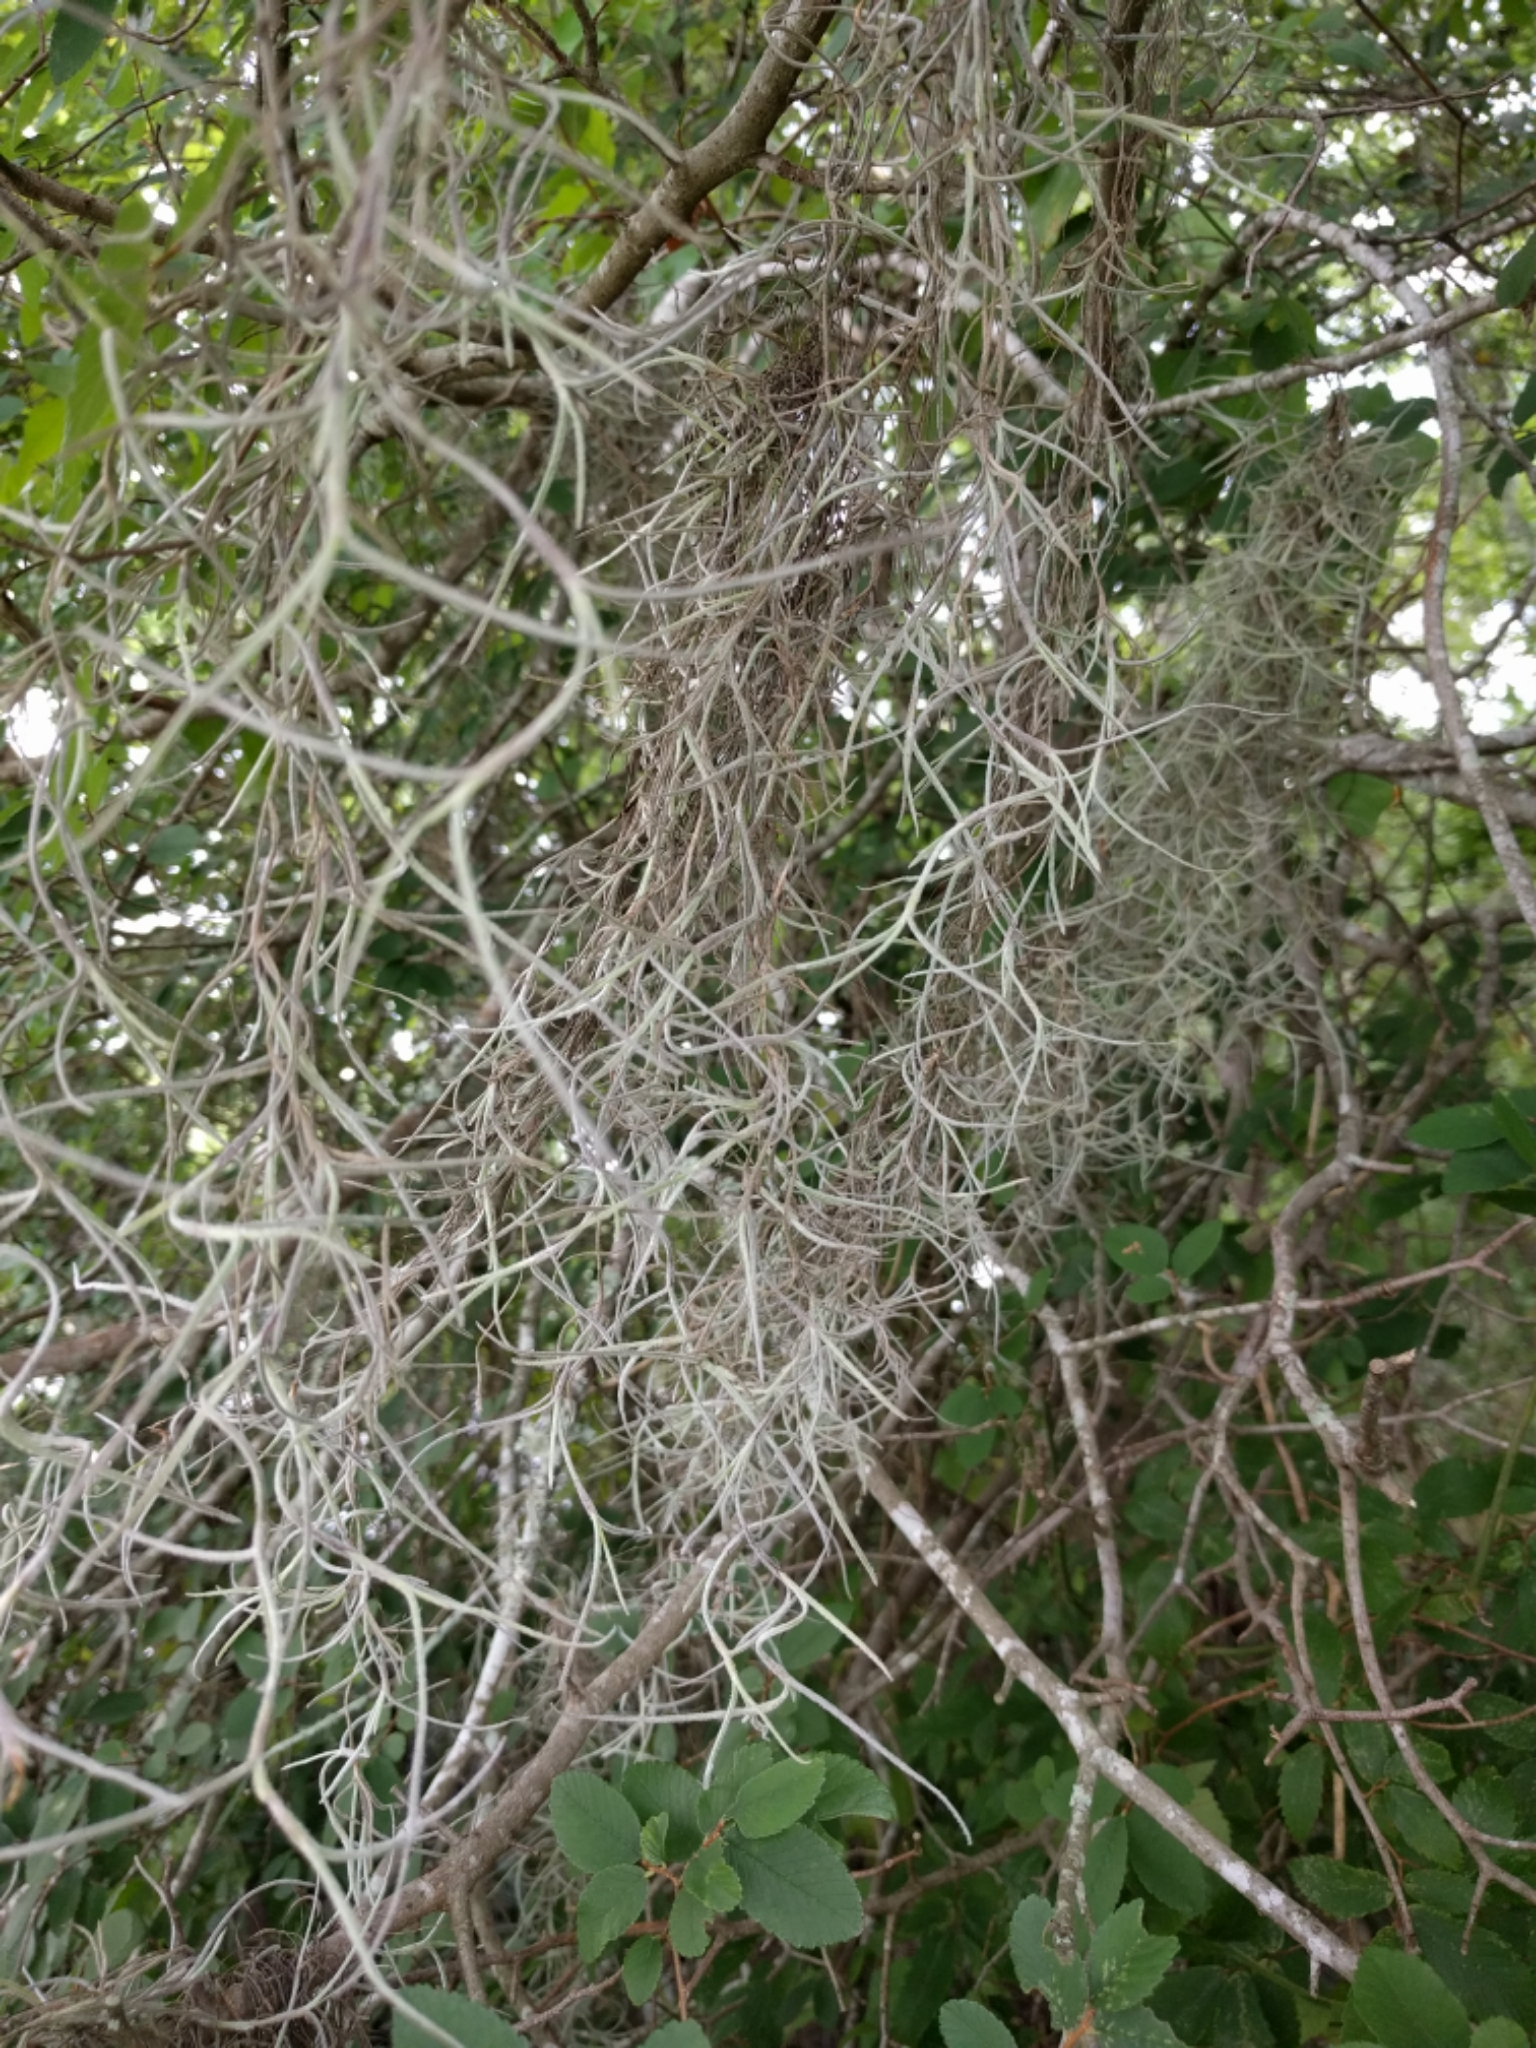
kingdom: Plantae
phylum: Tracheophyta
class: Liliopsida
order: Poales
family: Bromeliaceae
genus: Tillandsia
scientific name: Tillandsia usneoides
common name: Spanish moss
